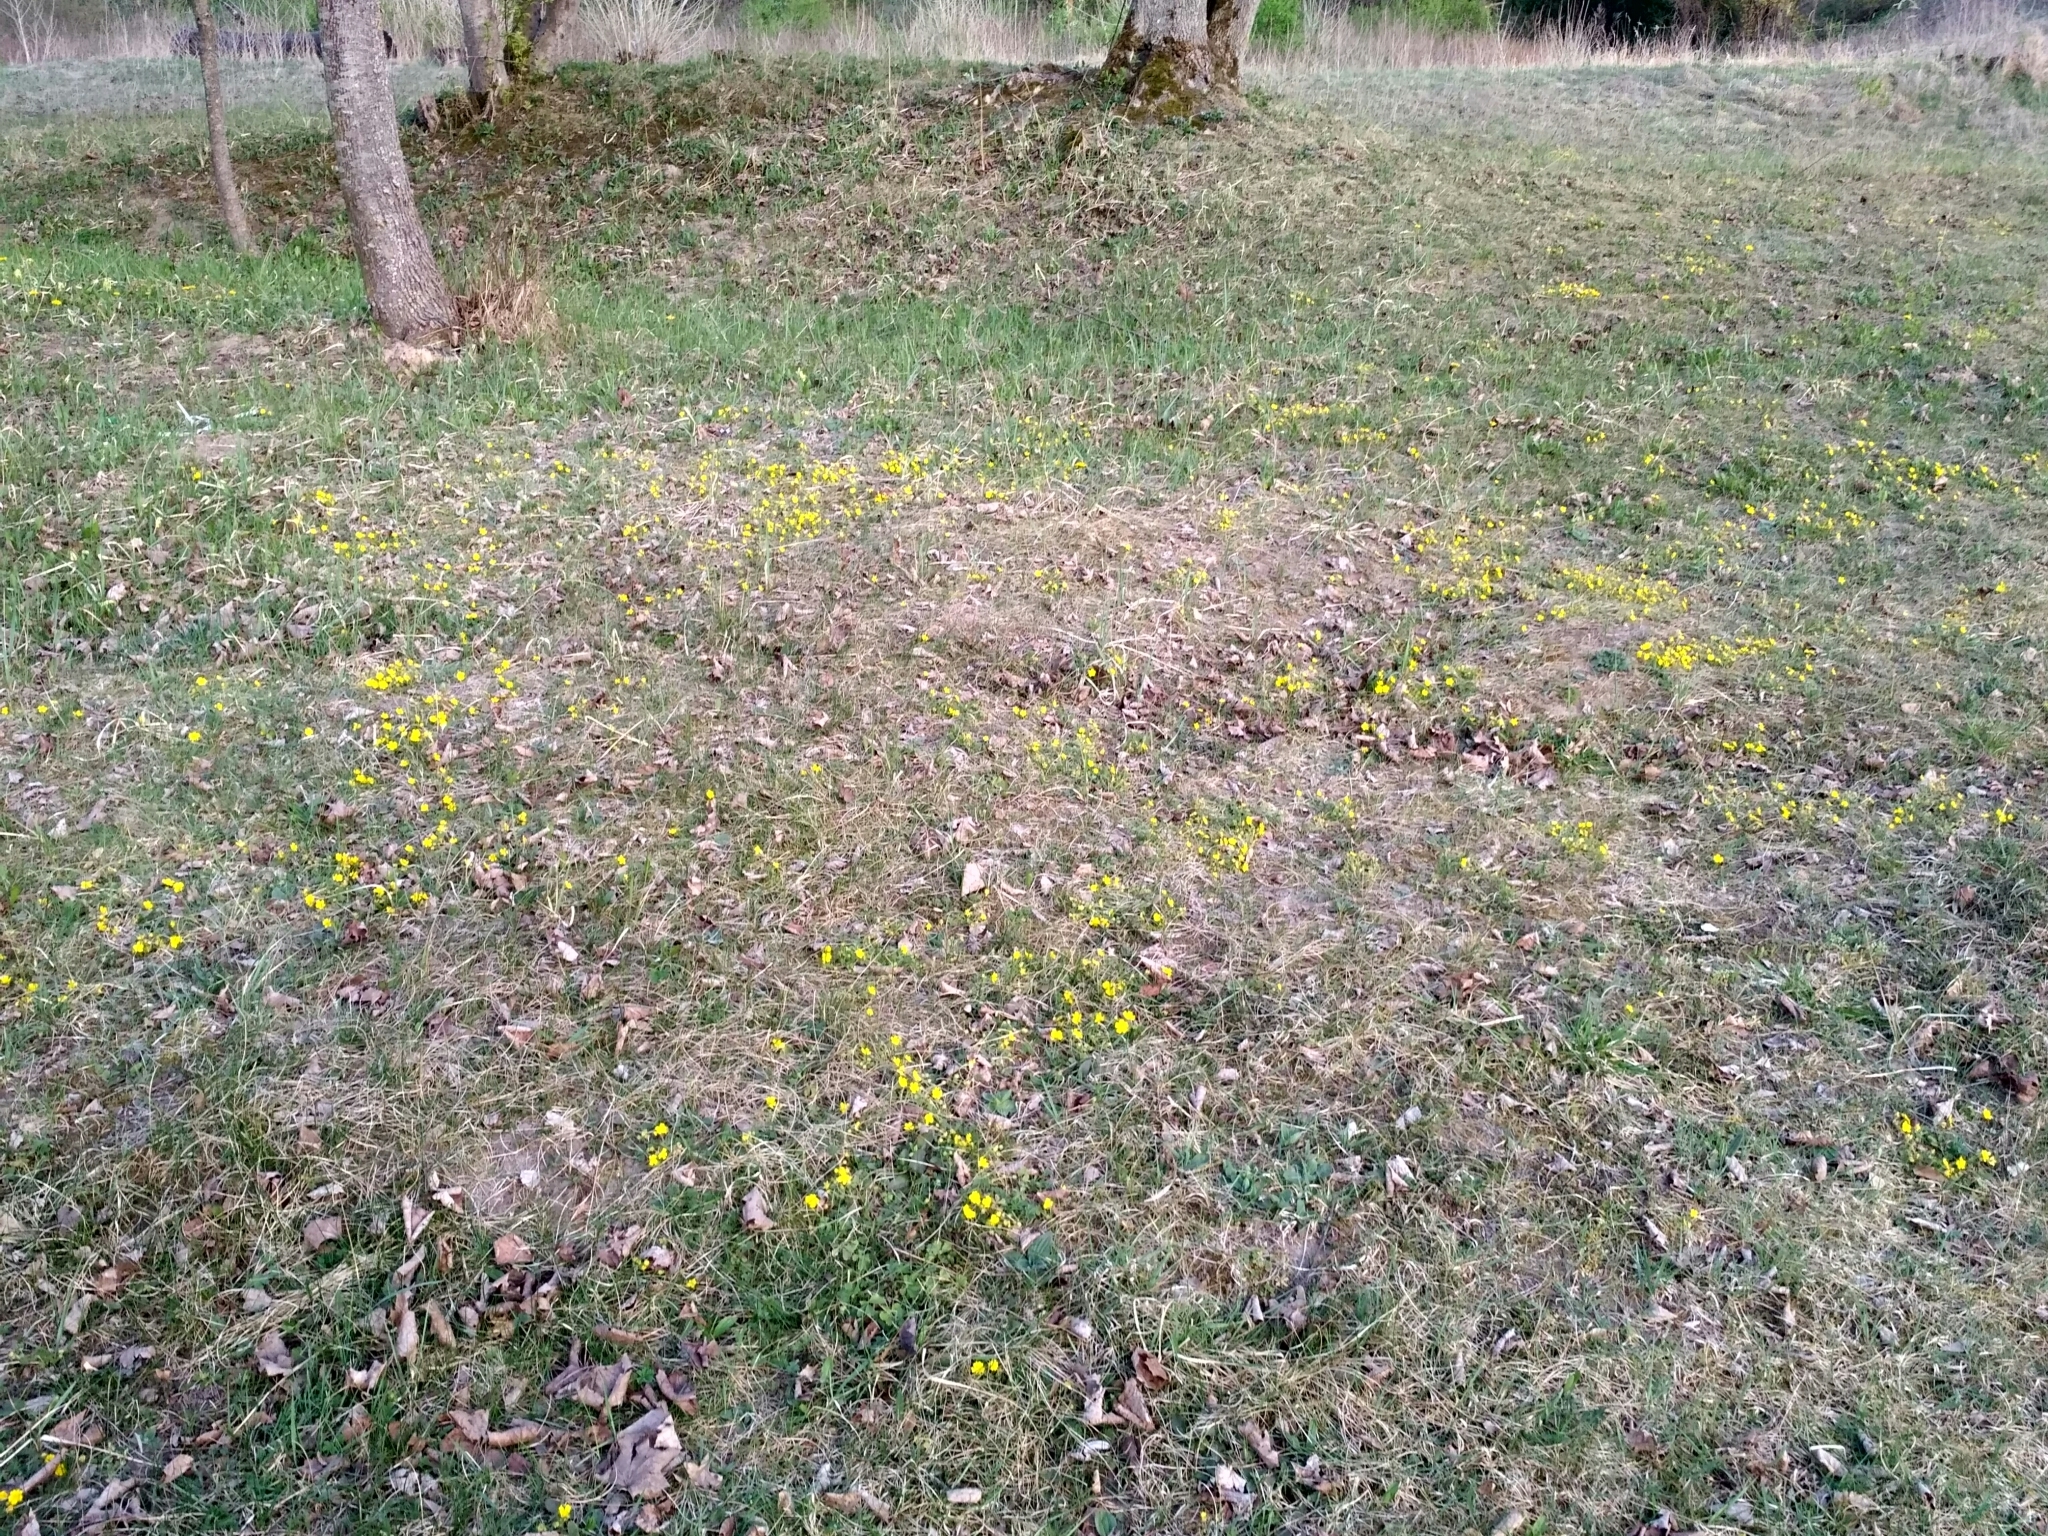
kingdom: Plantae
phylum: Tracheophyta
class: Magnoliopsida
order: Rosales
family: Rosaceae
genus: Potentilla
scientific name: Potentilla incana
